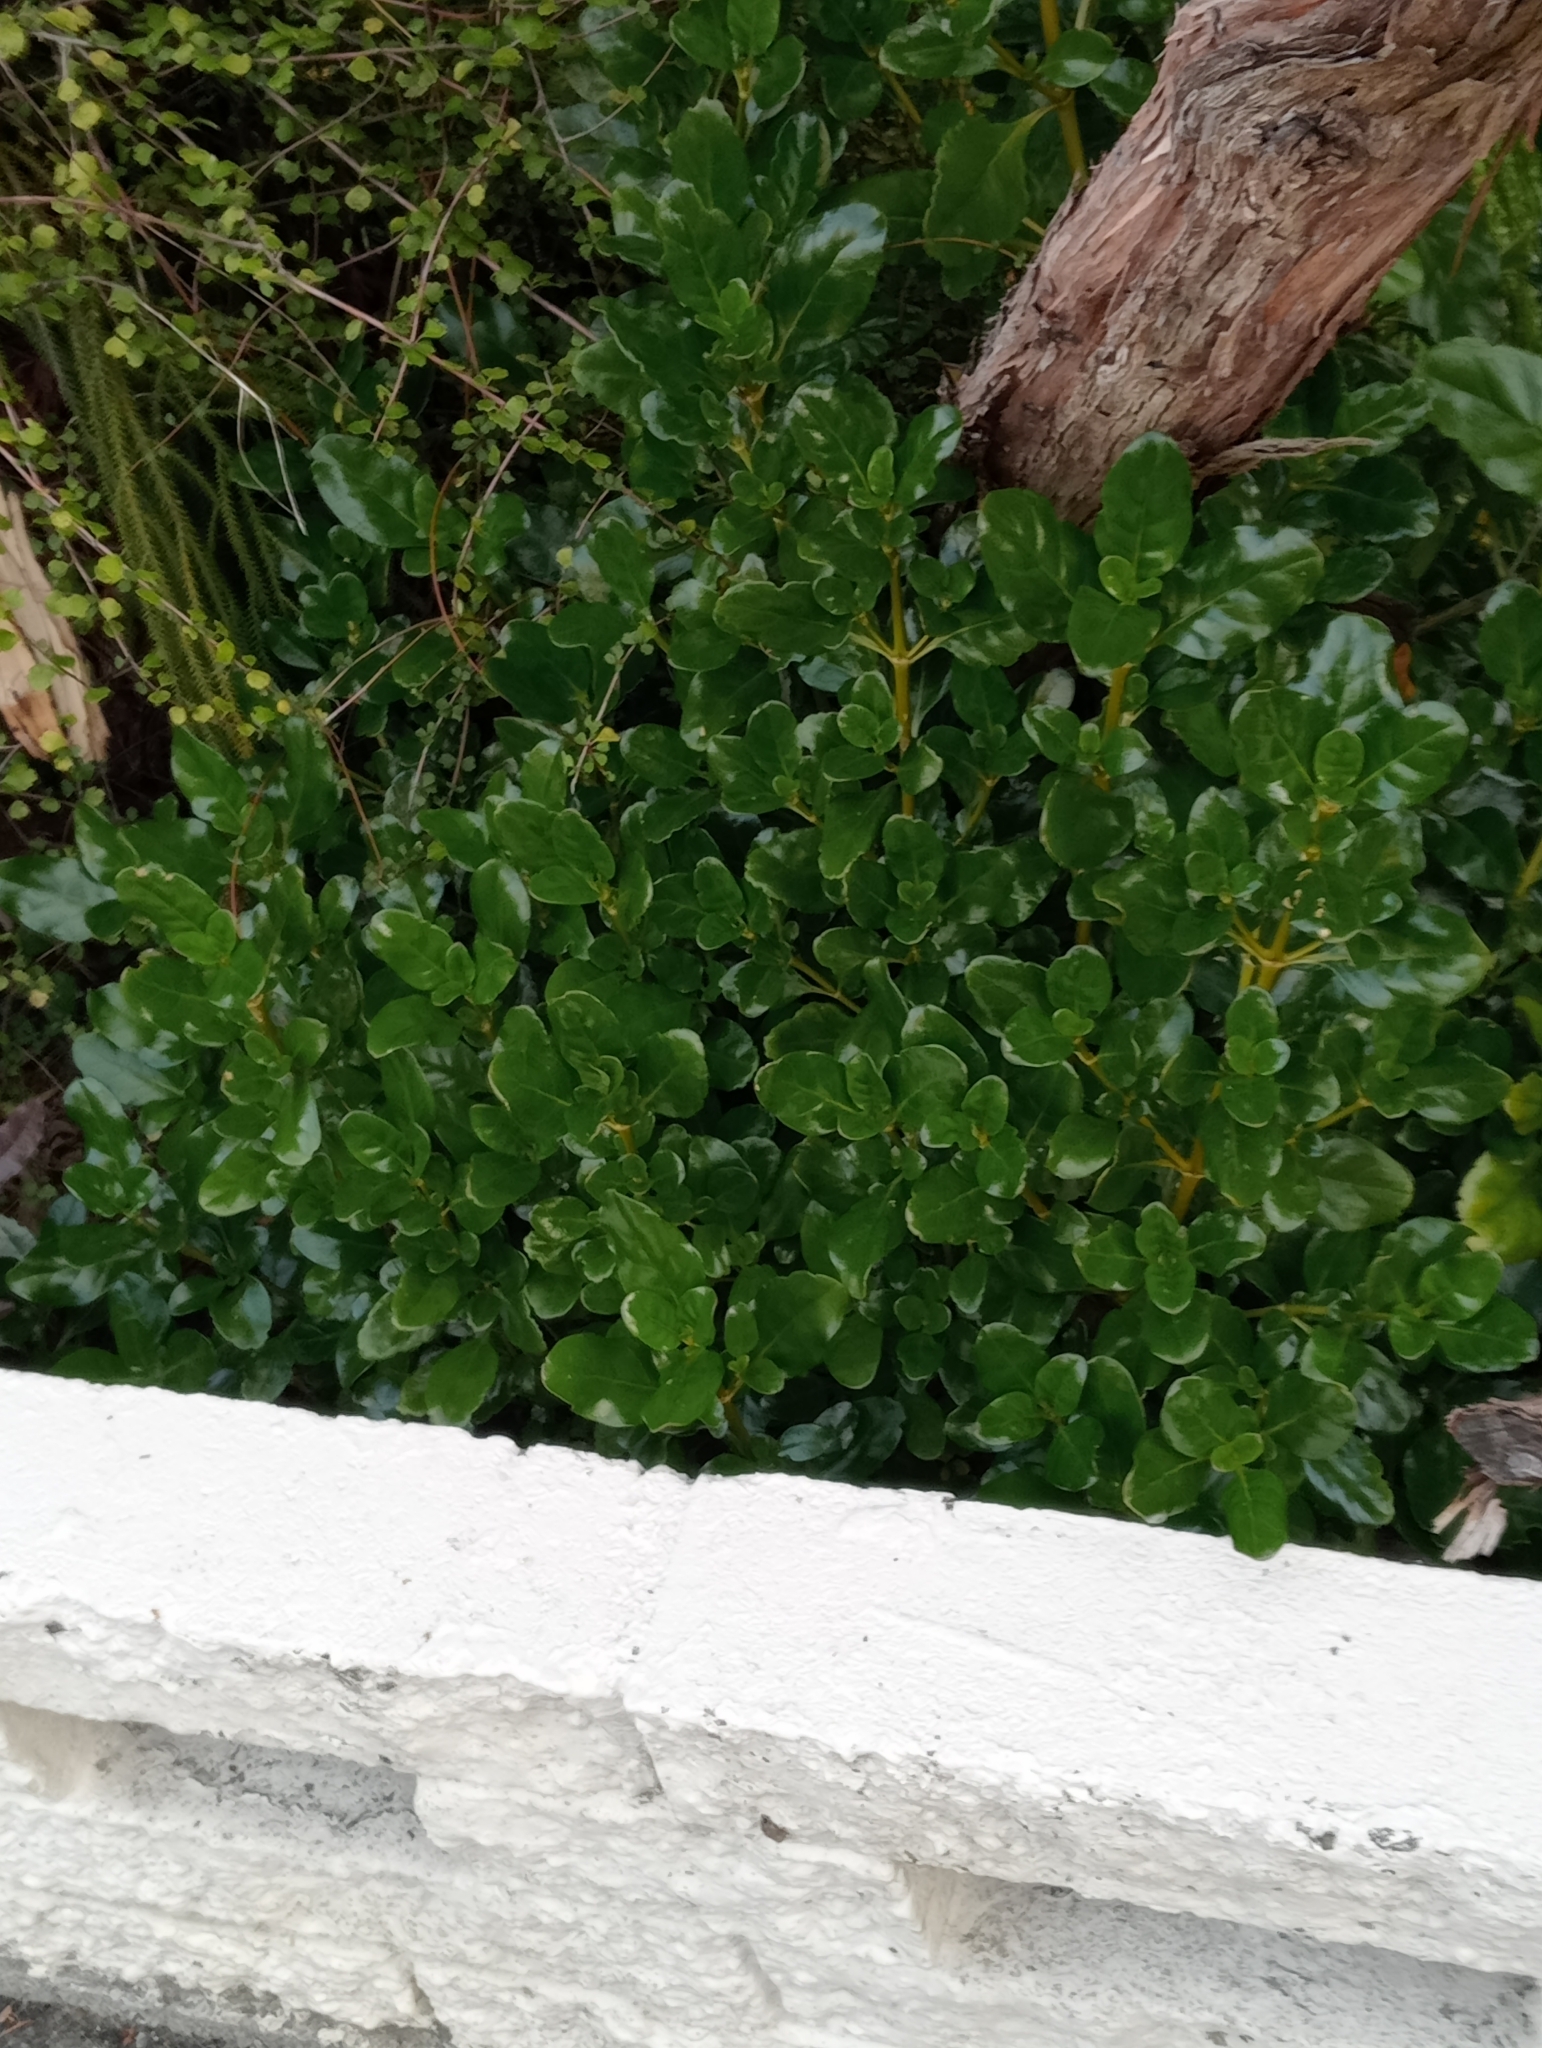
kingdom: Plantae
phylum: Tracheophyta
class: Magnoliopsida
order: Gentianales
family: Rubiaceae
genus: Coprosma
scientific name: Coprosma repens
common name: Tree bedstraw
